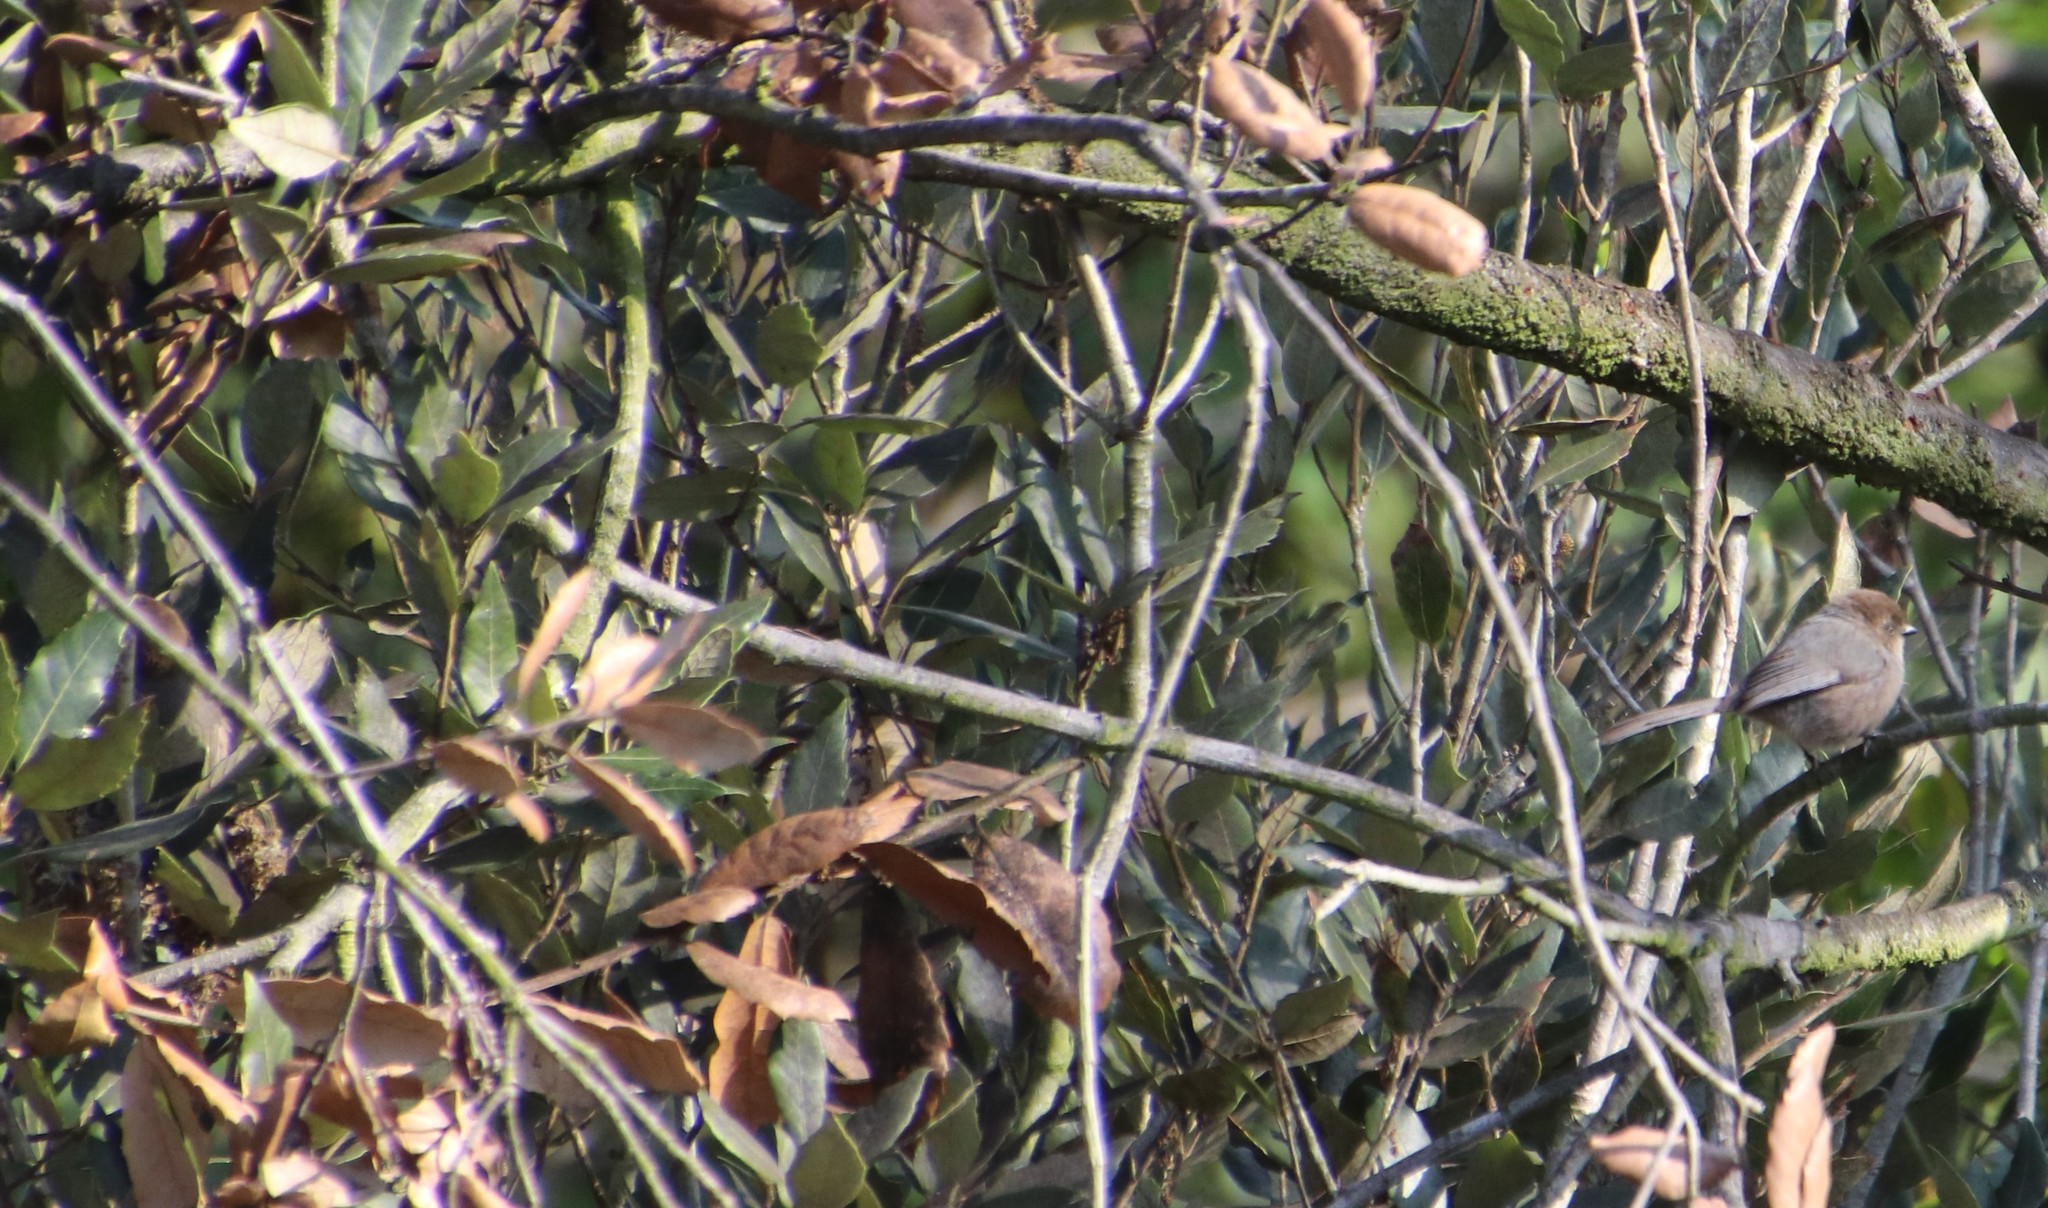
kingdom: Animalia
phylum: Chordata
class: Aves
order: Passeriformes
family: Aegithalidae
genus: Psaltriparus
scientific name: Psaltriparus minimus
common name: American bushtit
